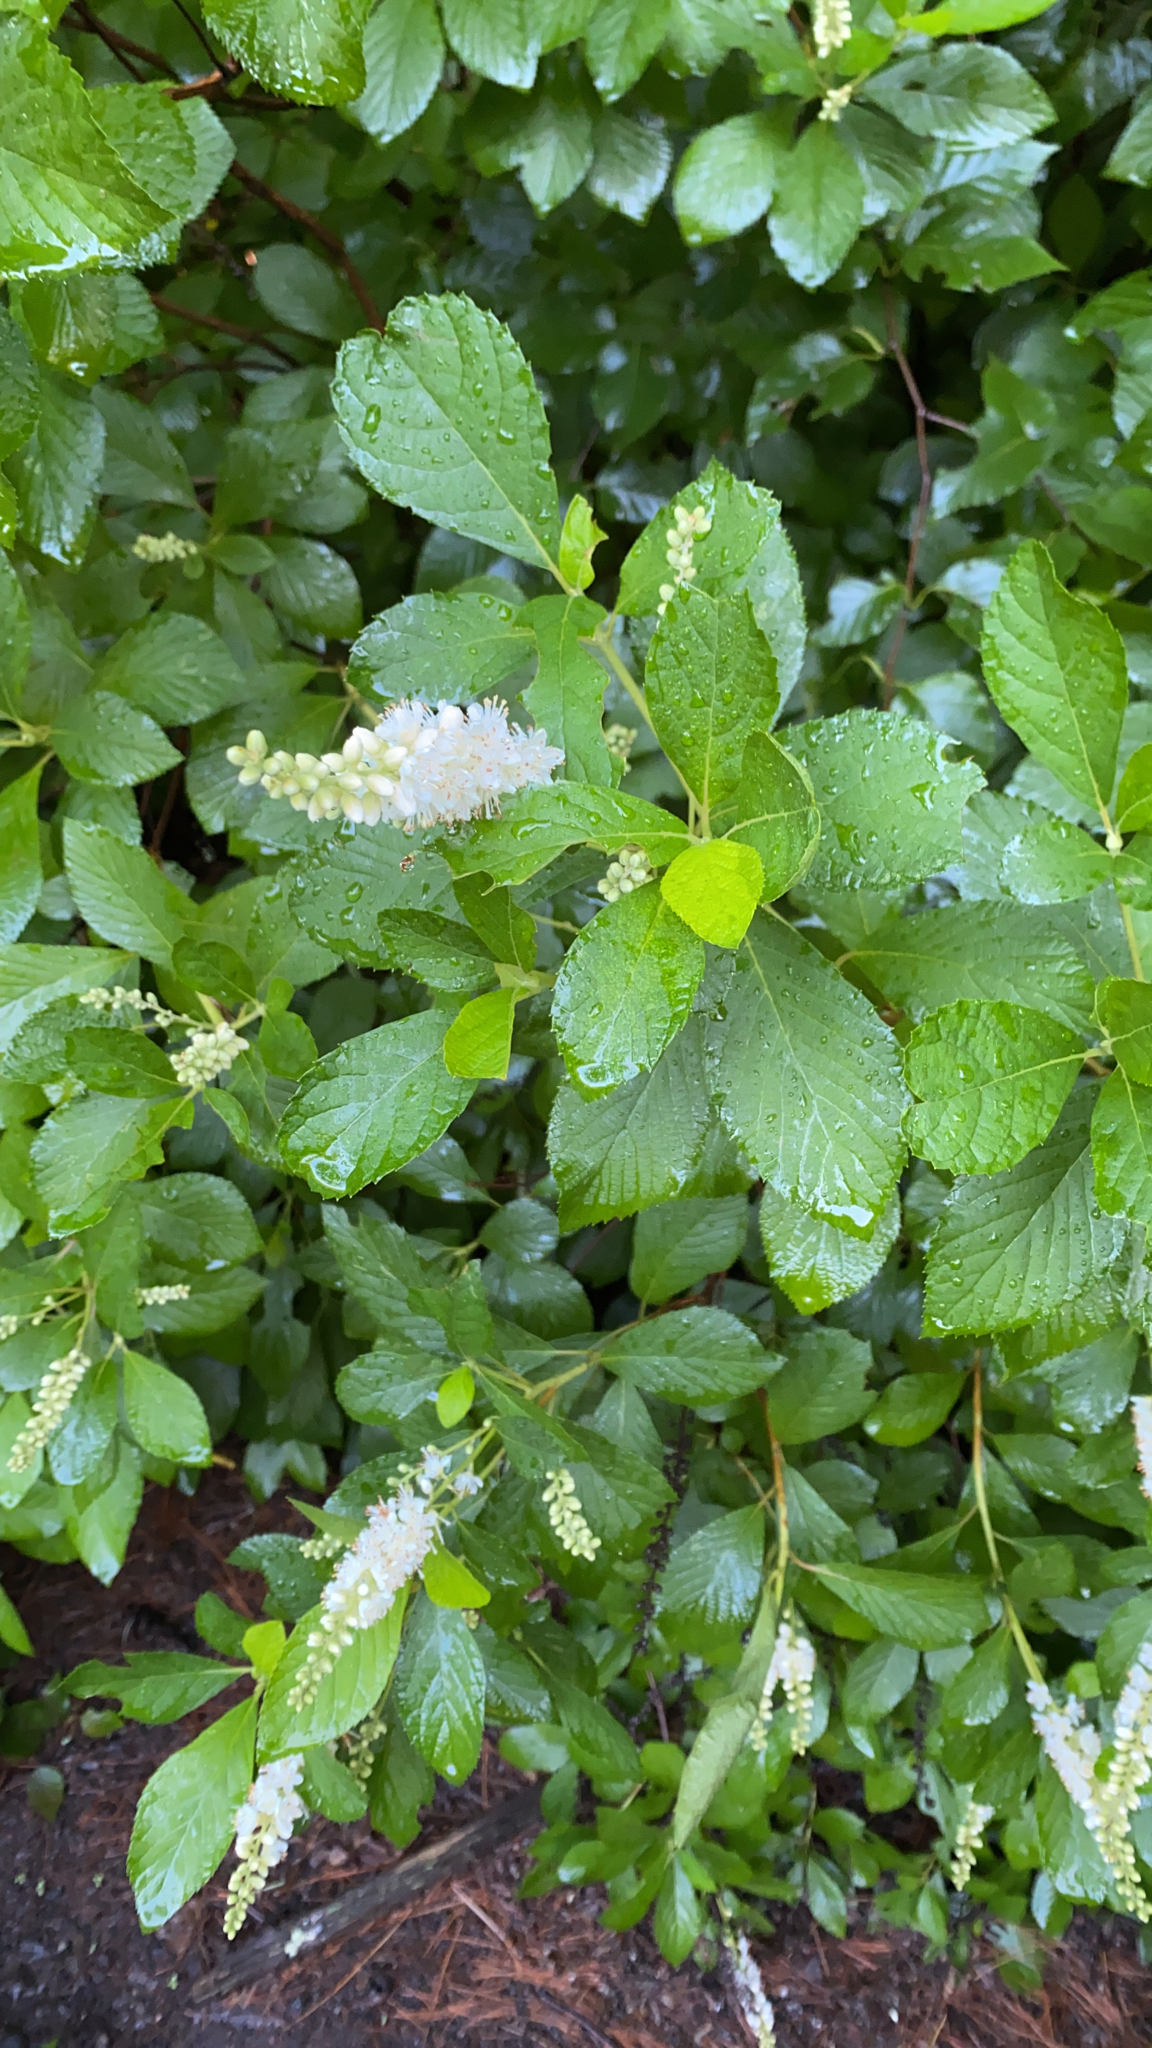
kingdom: Plantae
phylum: Tracheophyta
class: Magnoliopsida
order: Ericales
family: Clethraceae
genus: Clethra
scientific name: Clethra alnifolia
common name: Sweet pepperbush
